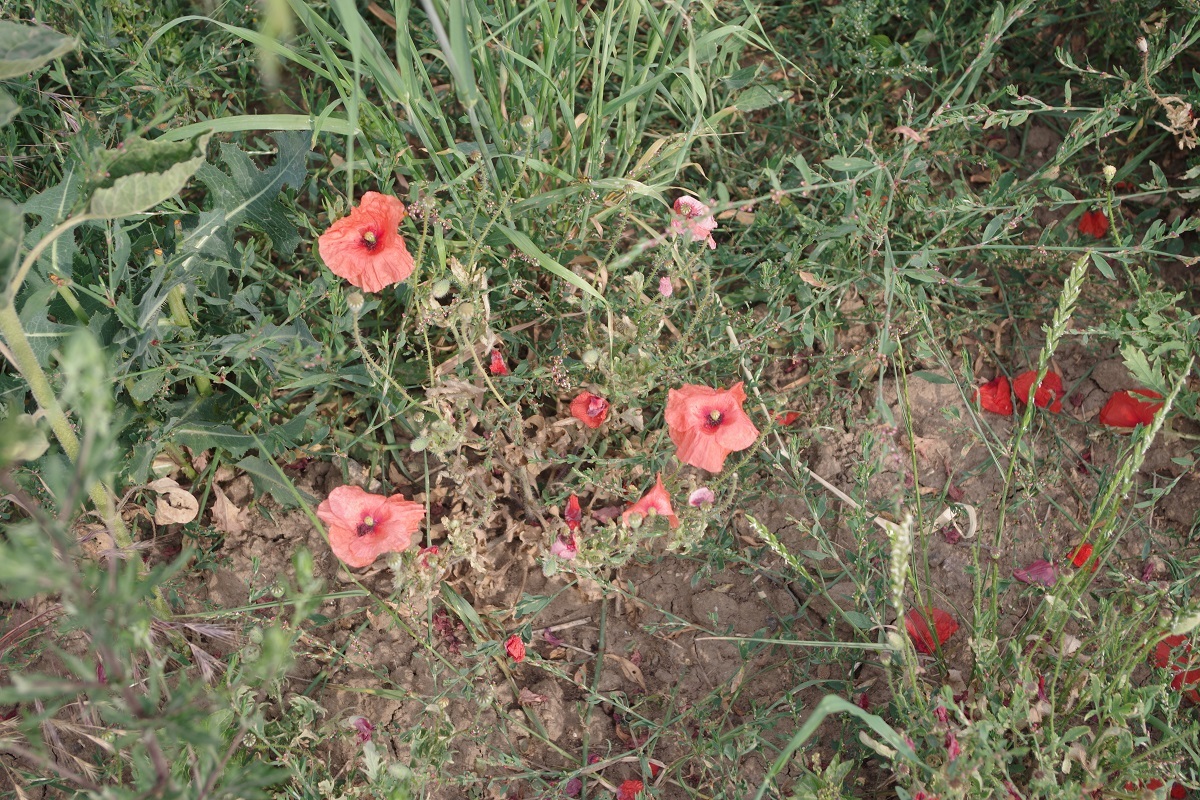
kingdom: Plantae
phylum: Tracheophyta
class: Magnoliopsida
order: Ranunculales
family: Papaveraceae
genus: Papaver
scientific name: Papaver rhoeas
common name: Corn poppy
